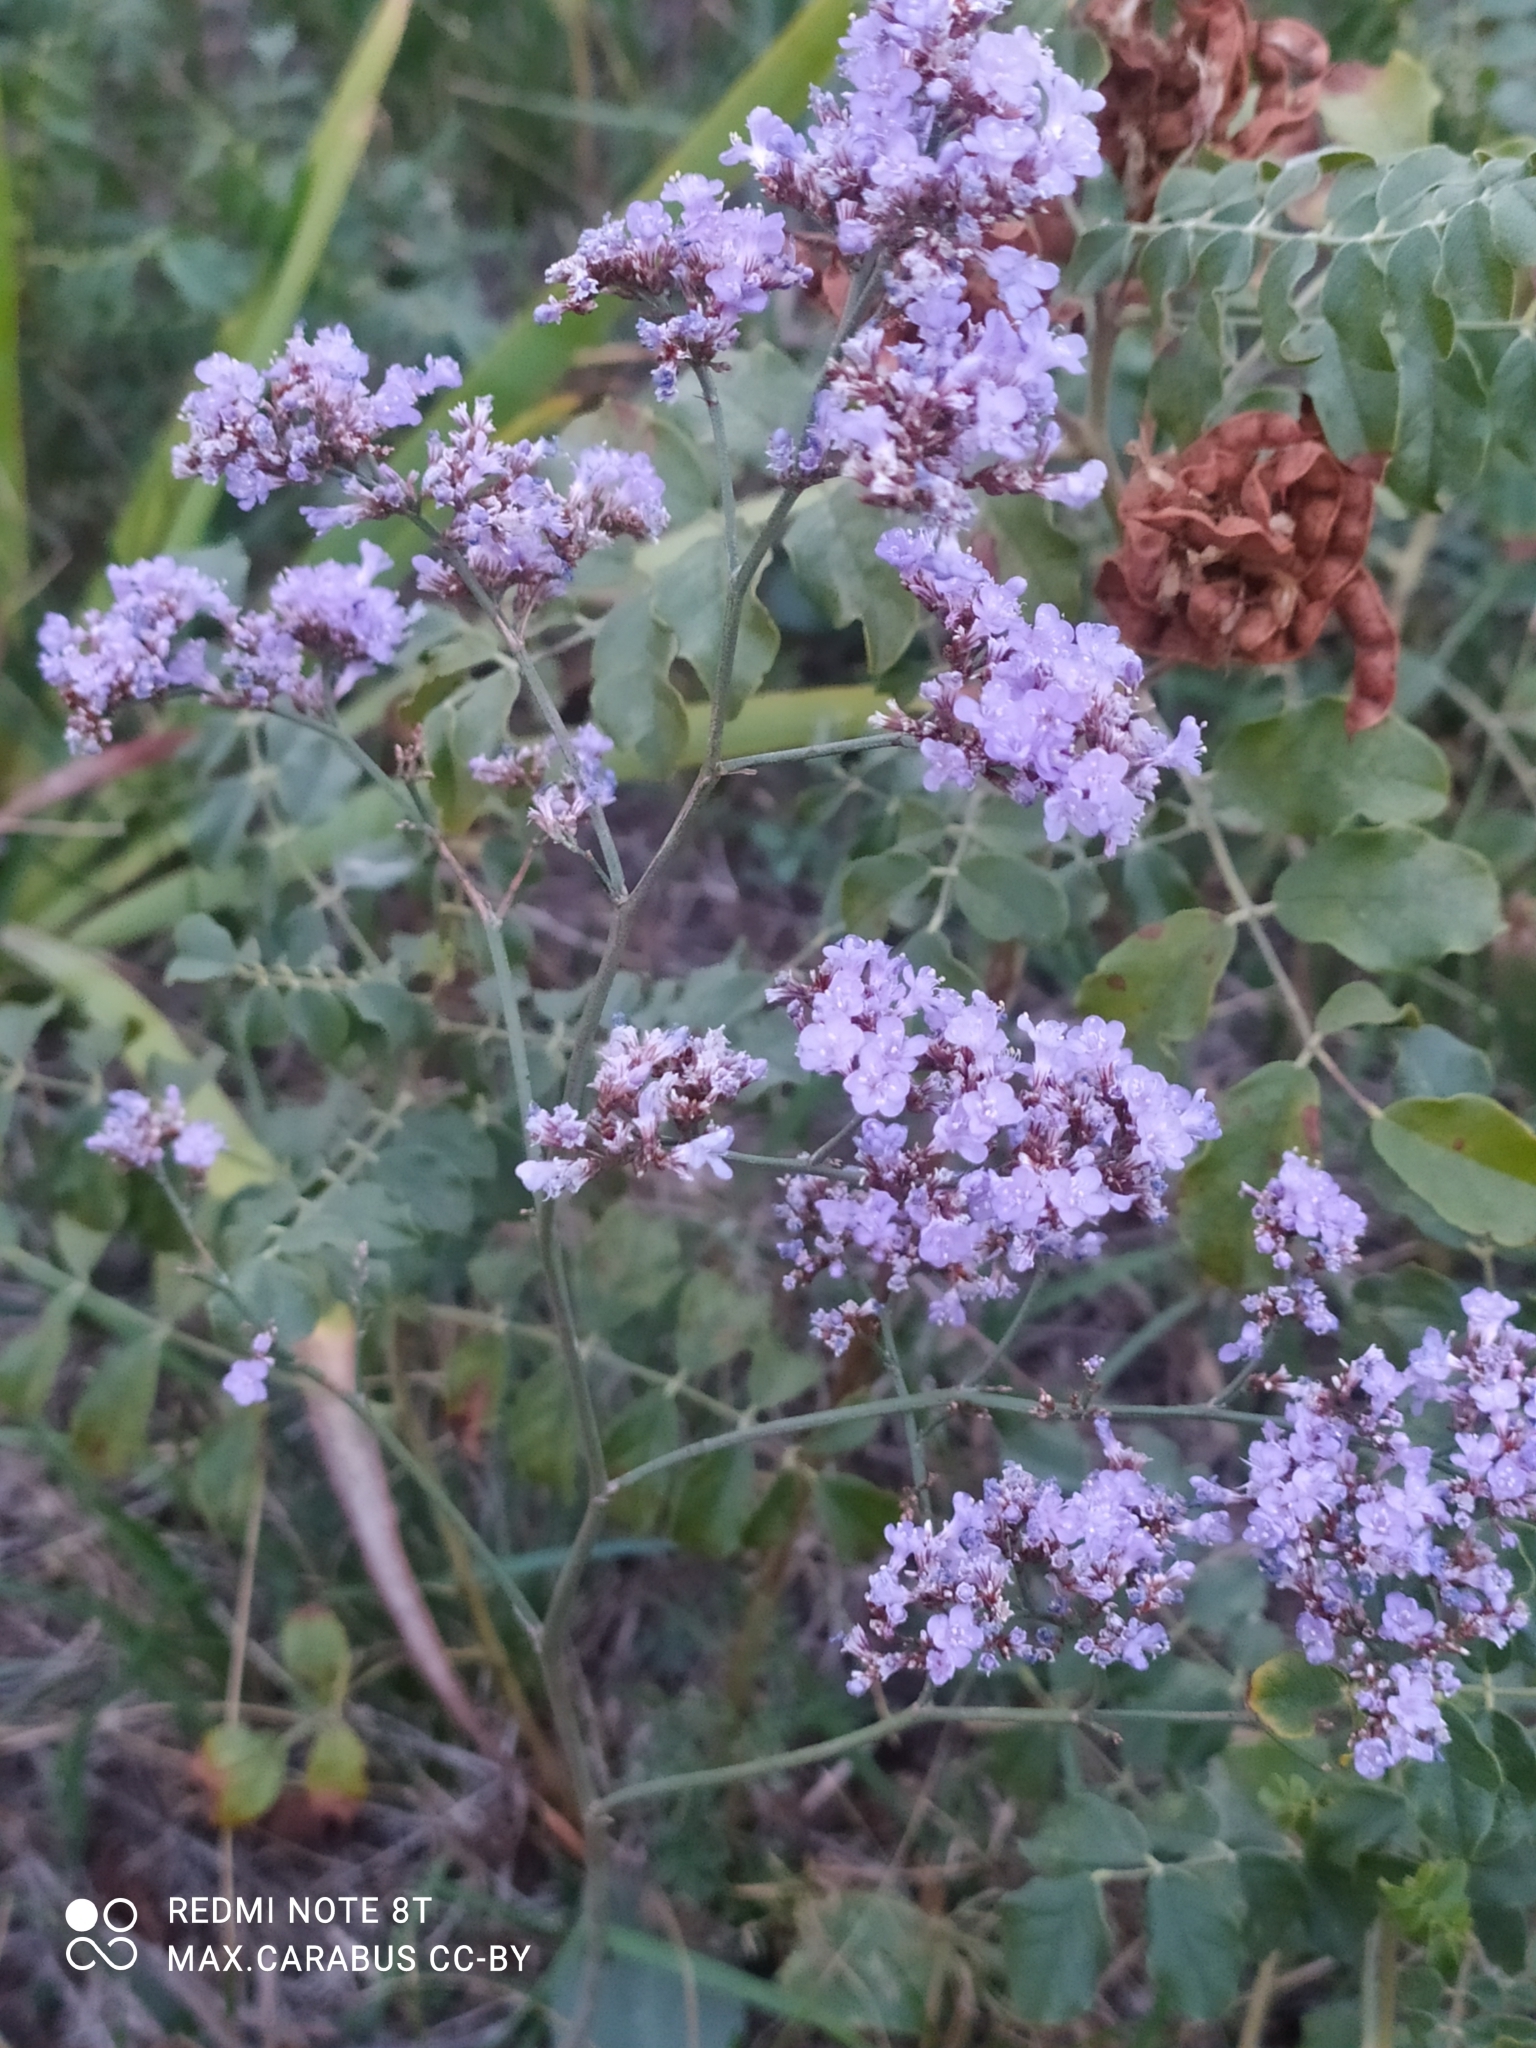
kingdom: Plantae
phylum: Tracheophyta
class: Magnoliopsida
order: Caryophyllales
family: Plumbaginaceae
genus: Limonium
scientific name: Limonium gmelini
